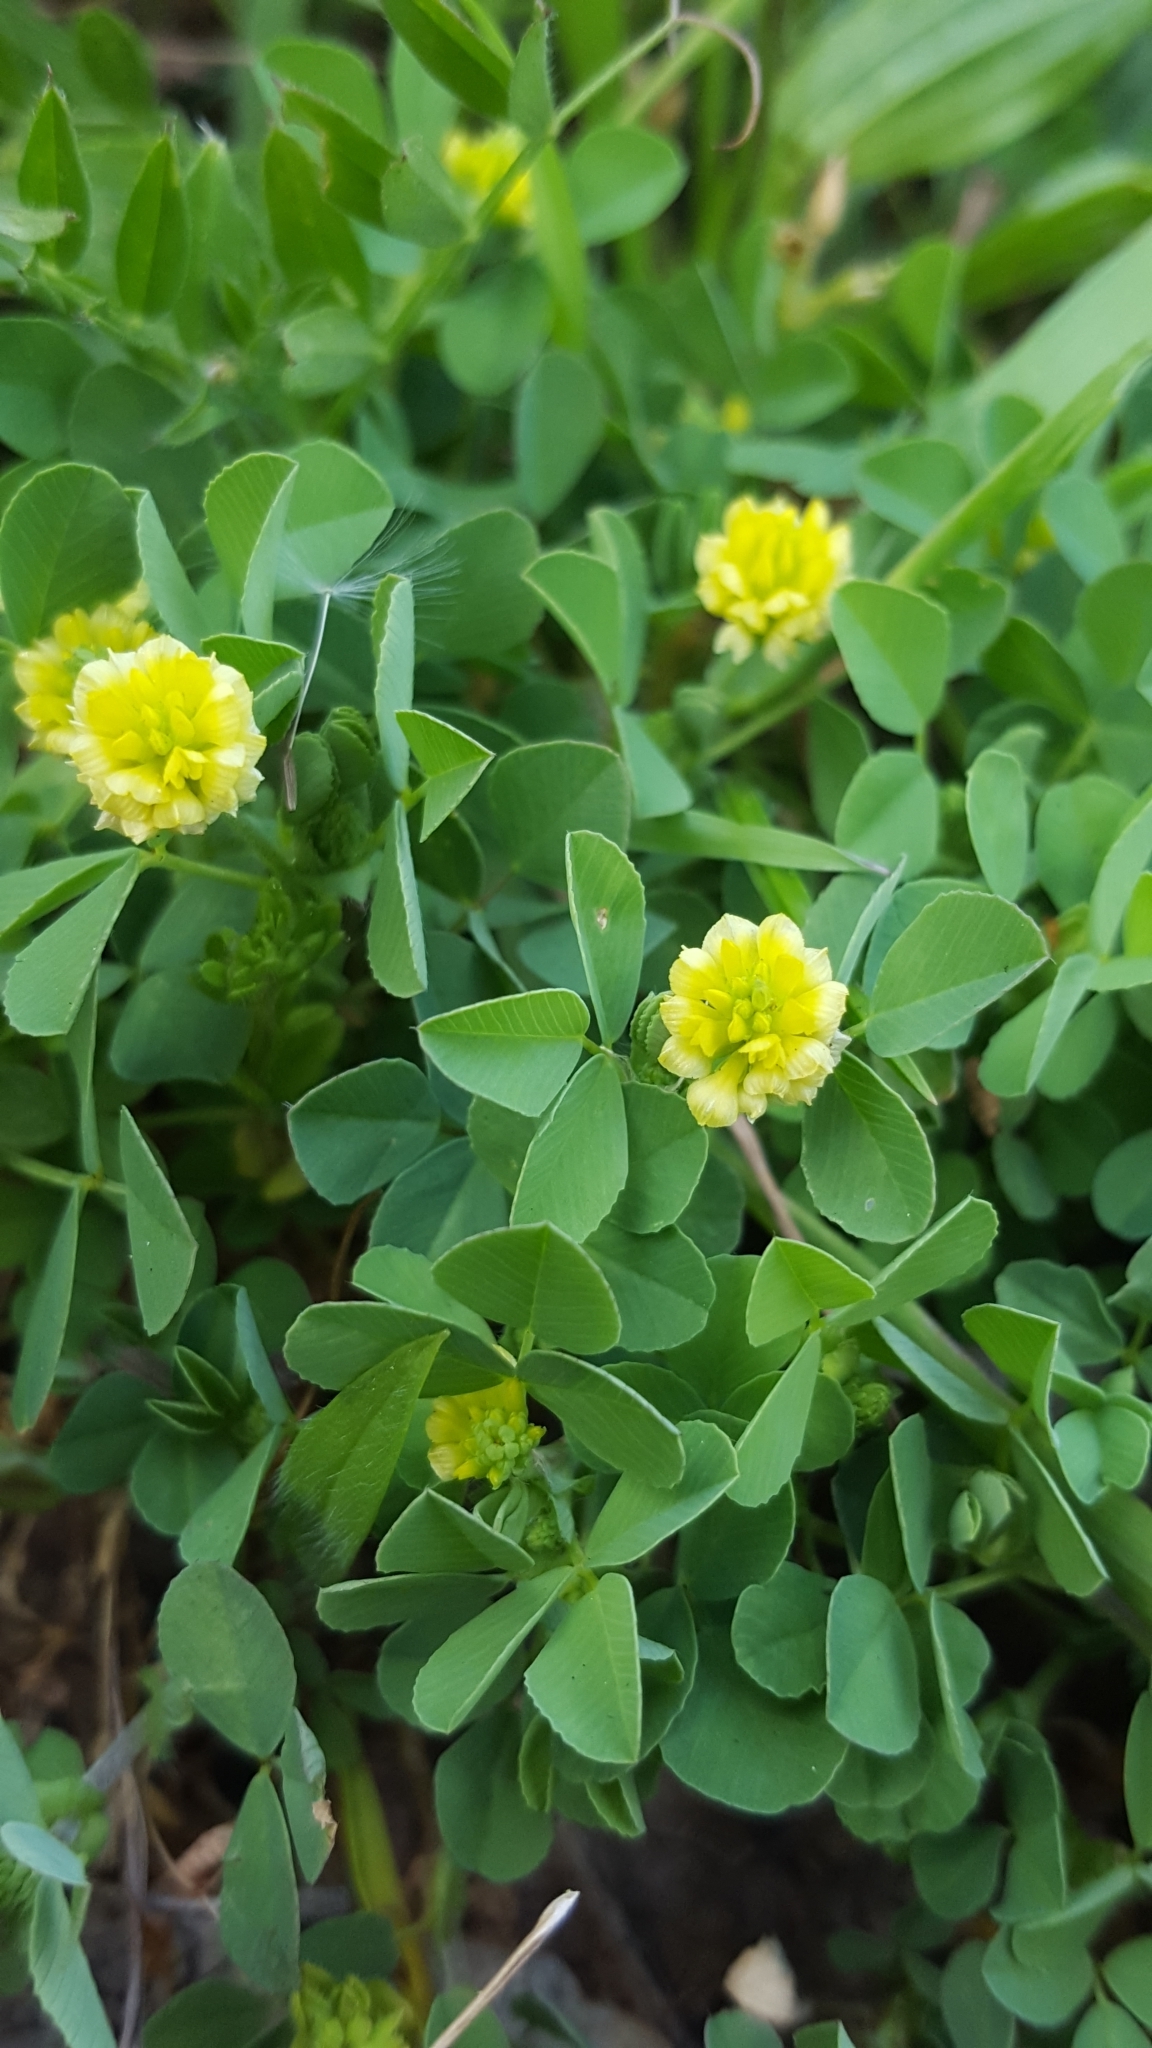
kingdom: Plantae
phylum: Tracheophyta
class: Magnoliopsida
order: Fabales
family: Fabaceae
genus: Trifolium
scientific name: Trifolium campestre
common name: Field clover
